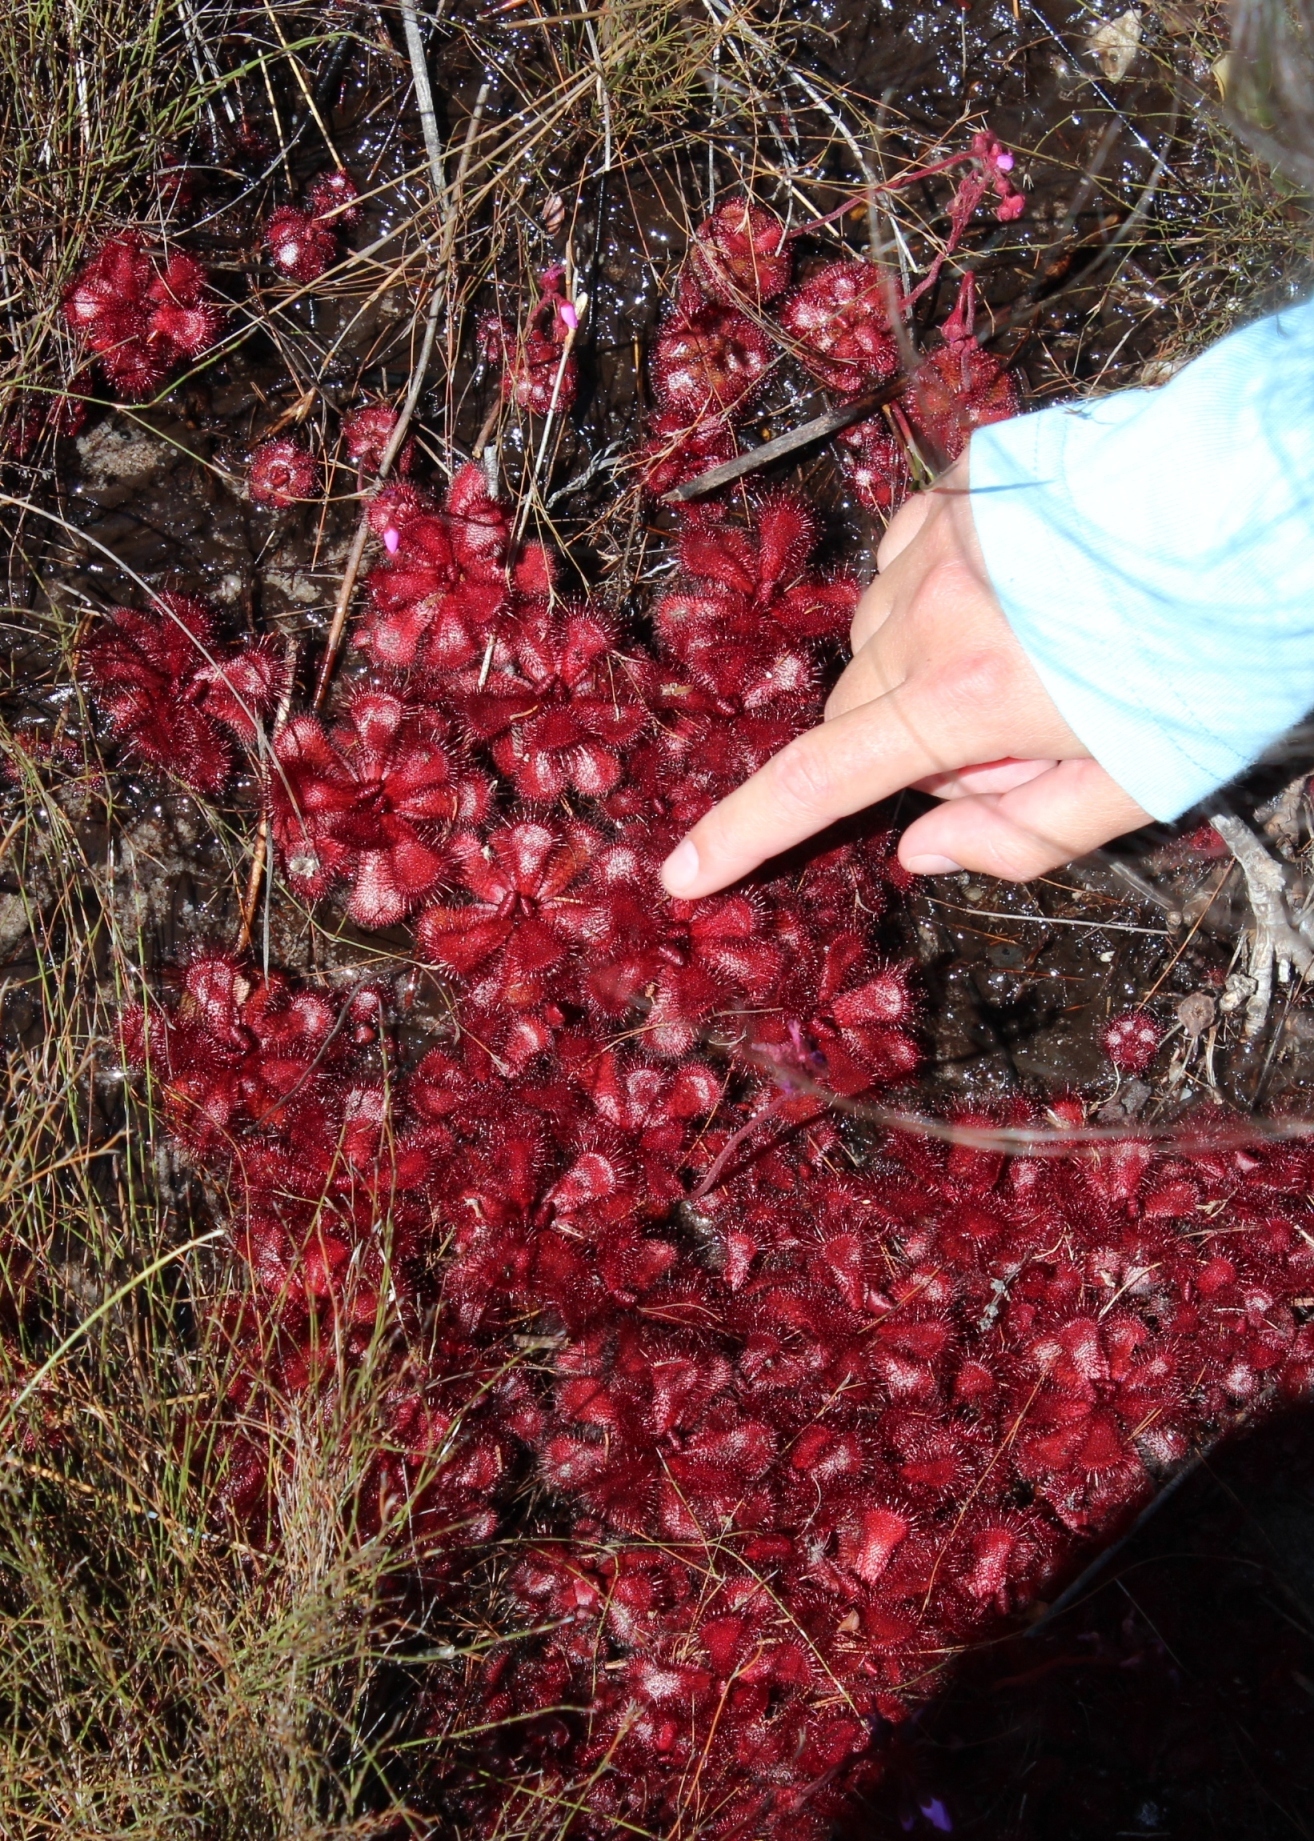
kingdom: Plantae
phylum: Tracheophyta
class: Magnoliopsida
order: Caryophyllales
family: Droseraceae
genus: Drosera
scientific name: Drosera slackii
